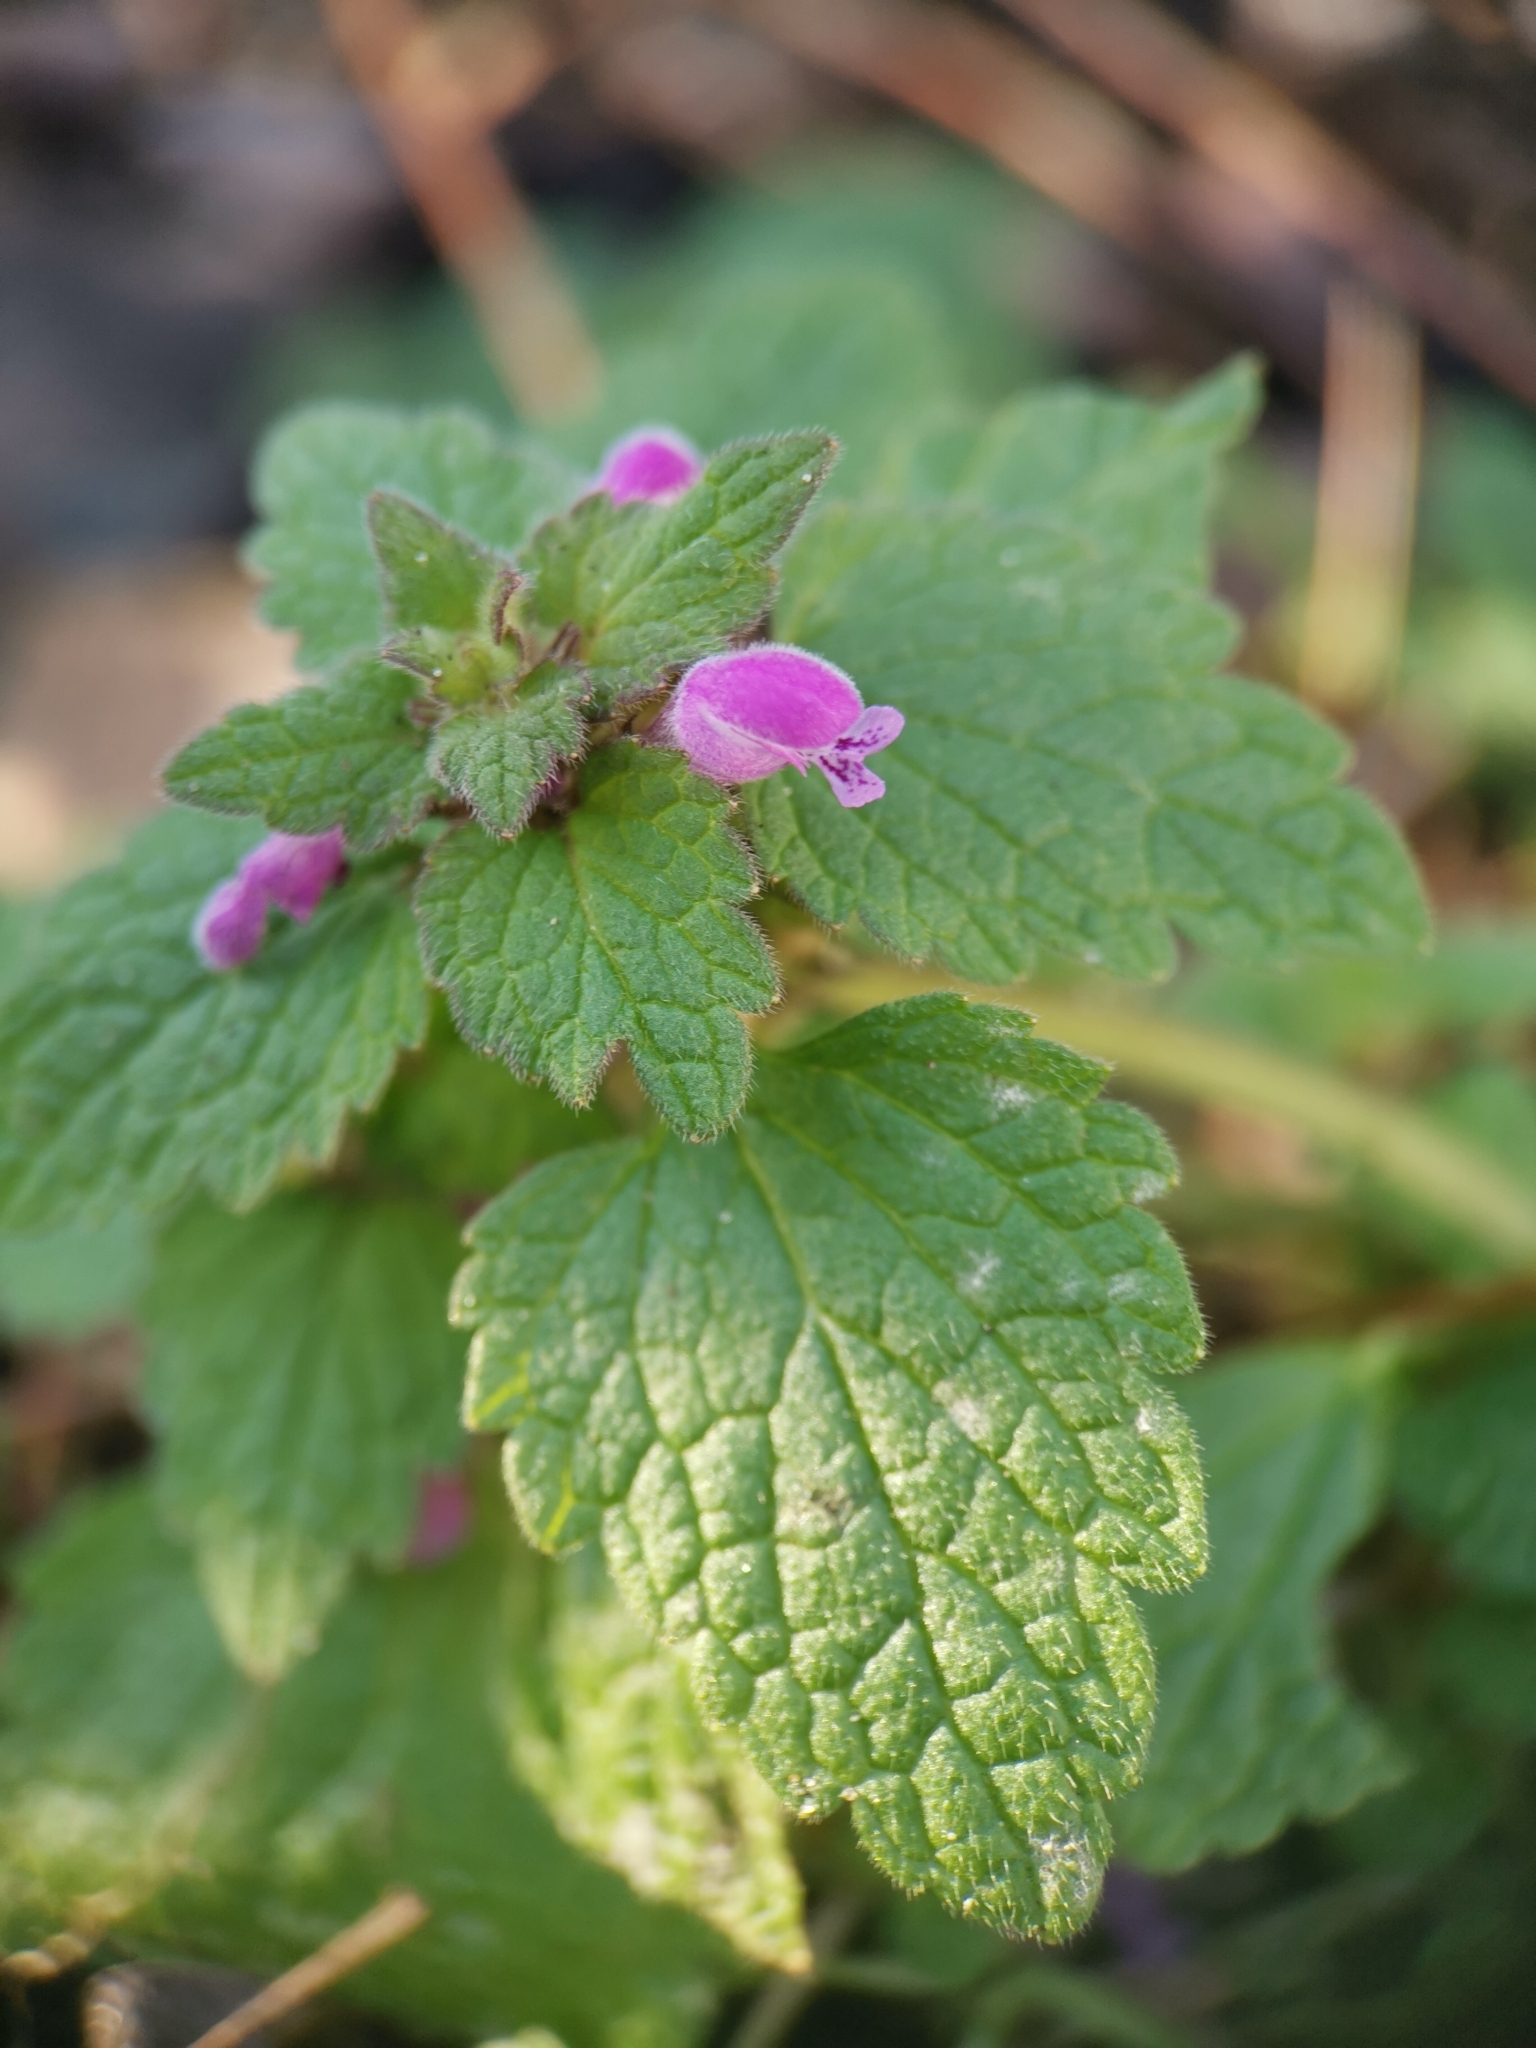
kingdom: Plantae
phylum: Tracheophyta
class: Magnoliopsida
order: Lamiales
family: Lamiaceae
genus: Lamium
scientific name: Lamium purpureum
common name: Red dead-nettle
